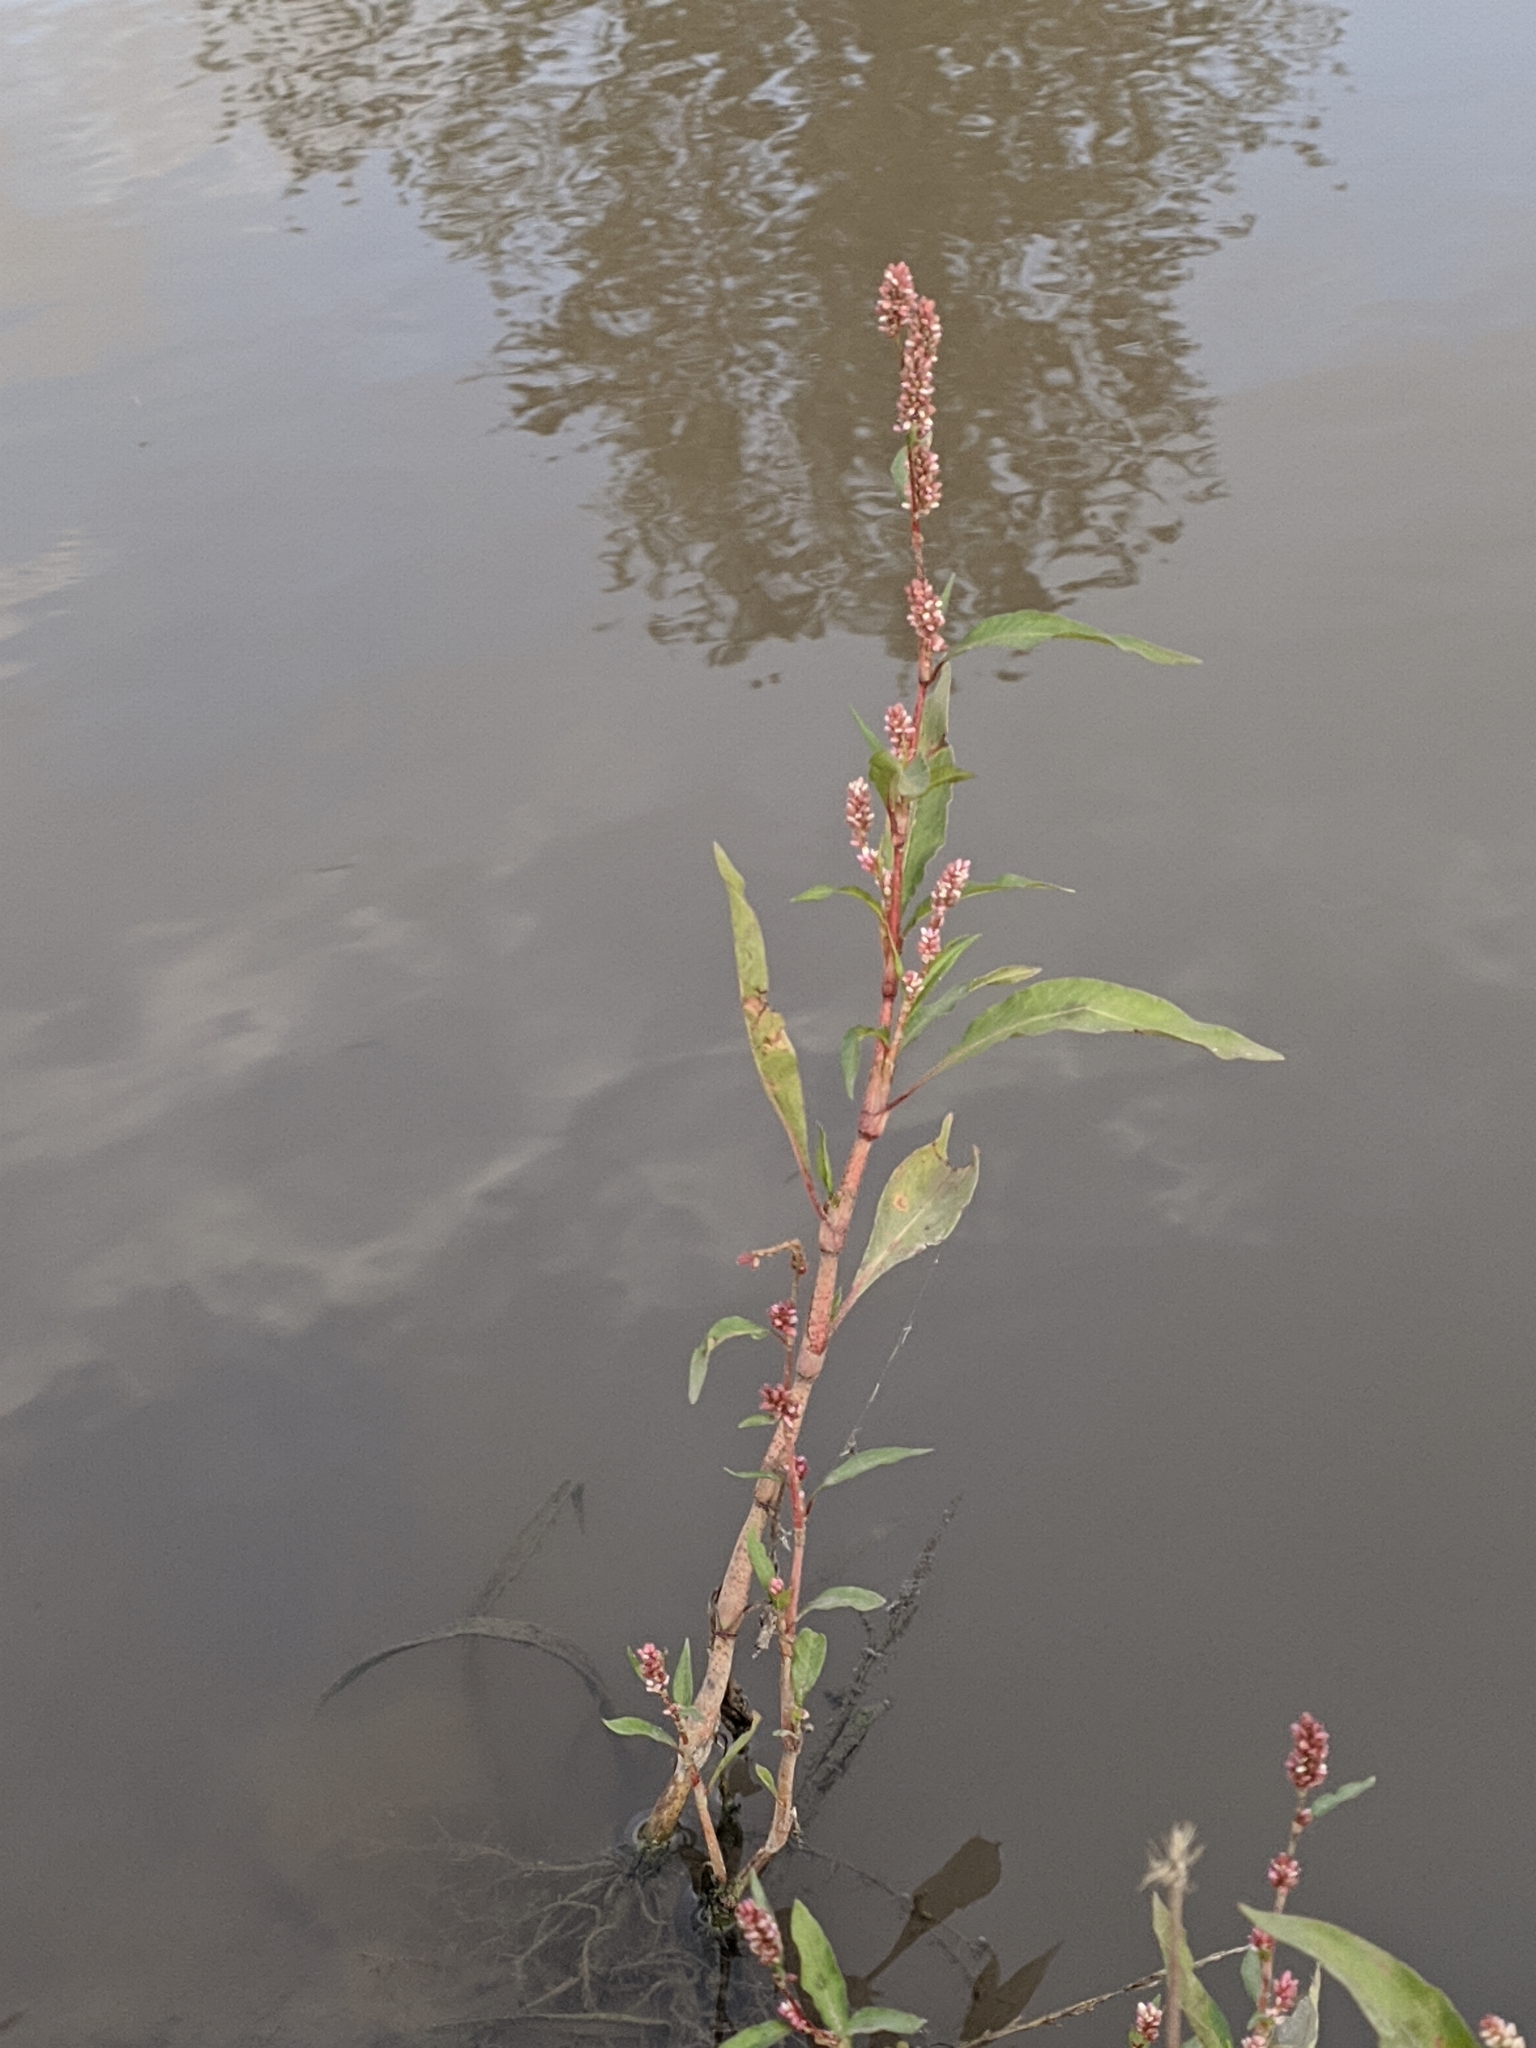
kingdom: Plantae
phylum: Tracheophyta
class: Magnoliopsida
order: Caryophyllales
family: Polygonaceae
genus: Persicaria
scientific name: Persicaria maculosa
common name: Redshank
